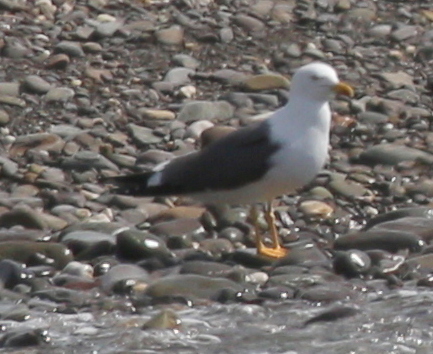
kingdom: Animalia
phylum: Chordata
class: Aves
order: Charadriiformes
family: Laridae
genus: Larus
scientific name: Larus fuscus
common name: Lesser black-backed gull
